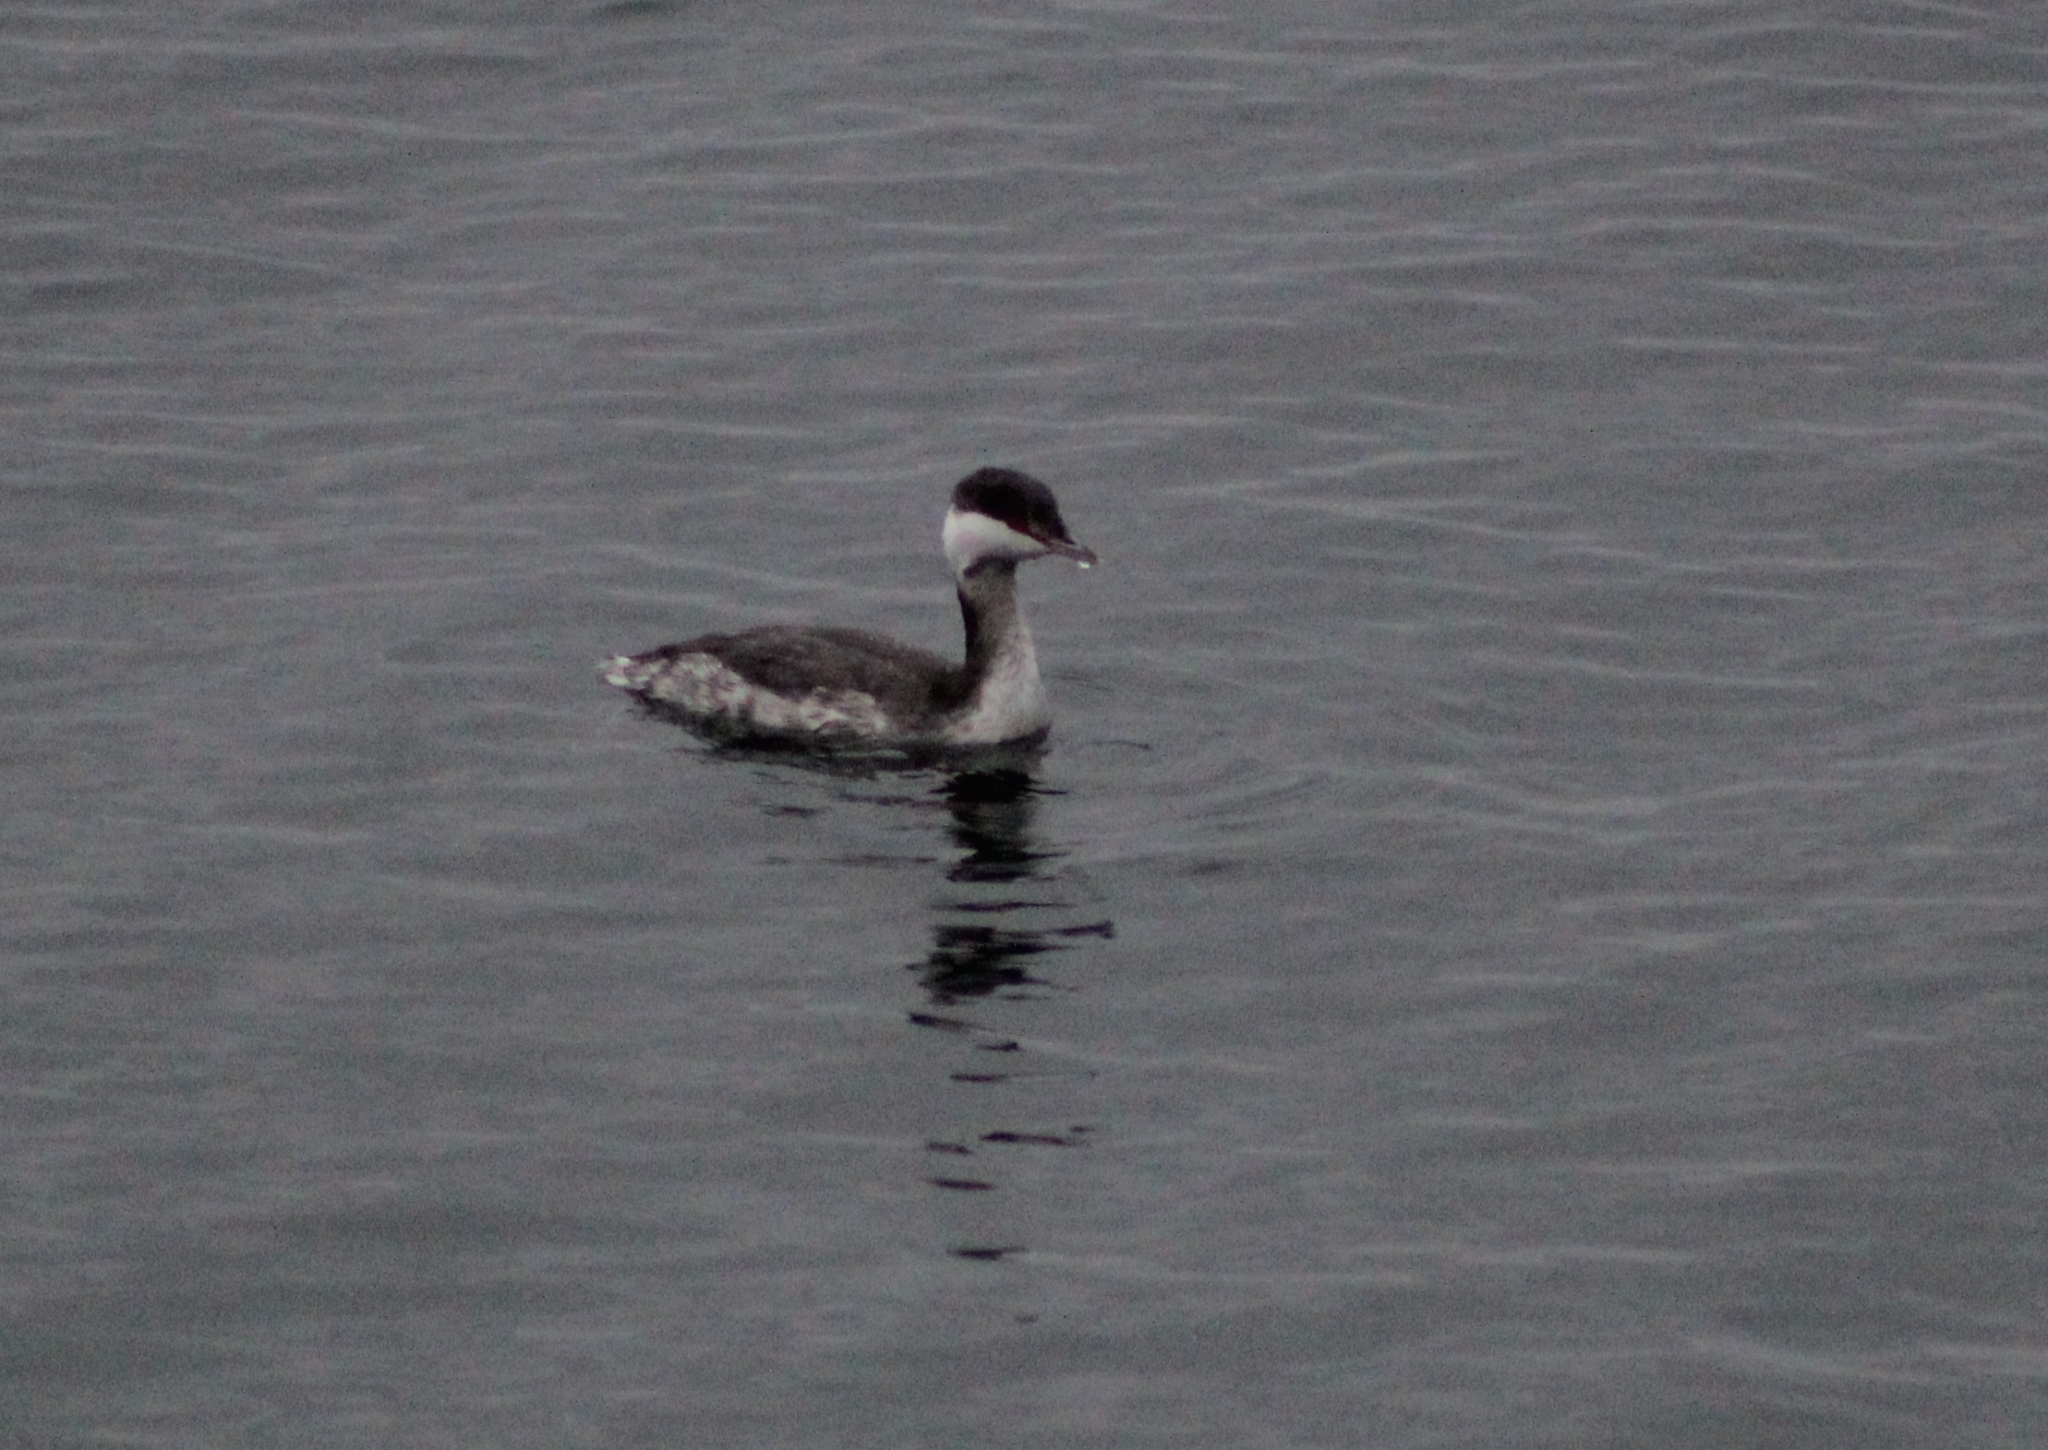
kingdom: Animalia
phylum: Chordata
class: Aves
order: Podicipediformes
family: Podicipedidae
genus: Podiceps
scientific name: Podiceps auritus
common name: Horned grebe
